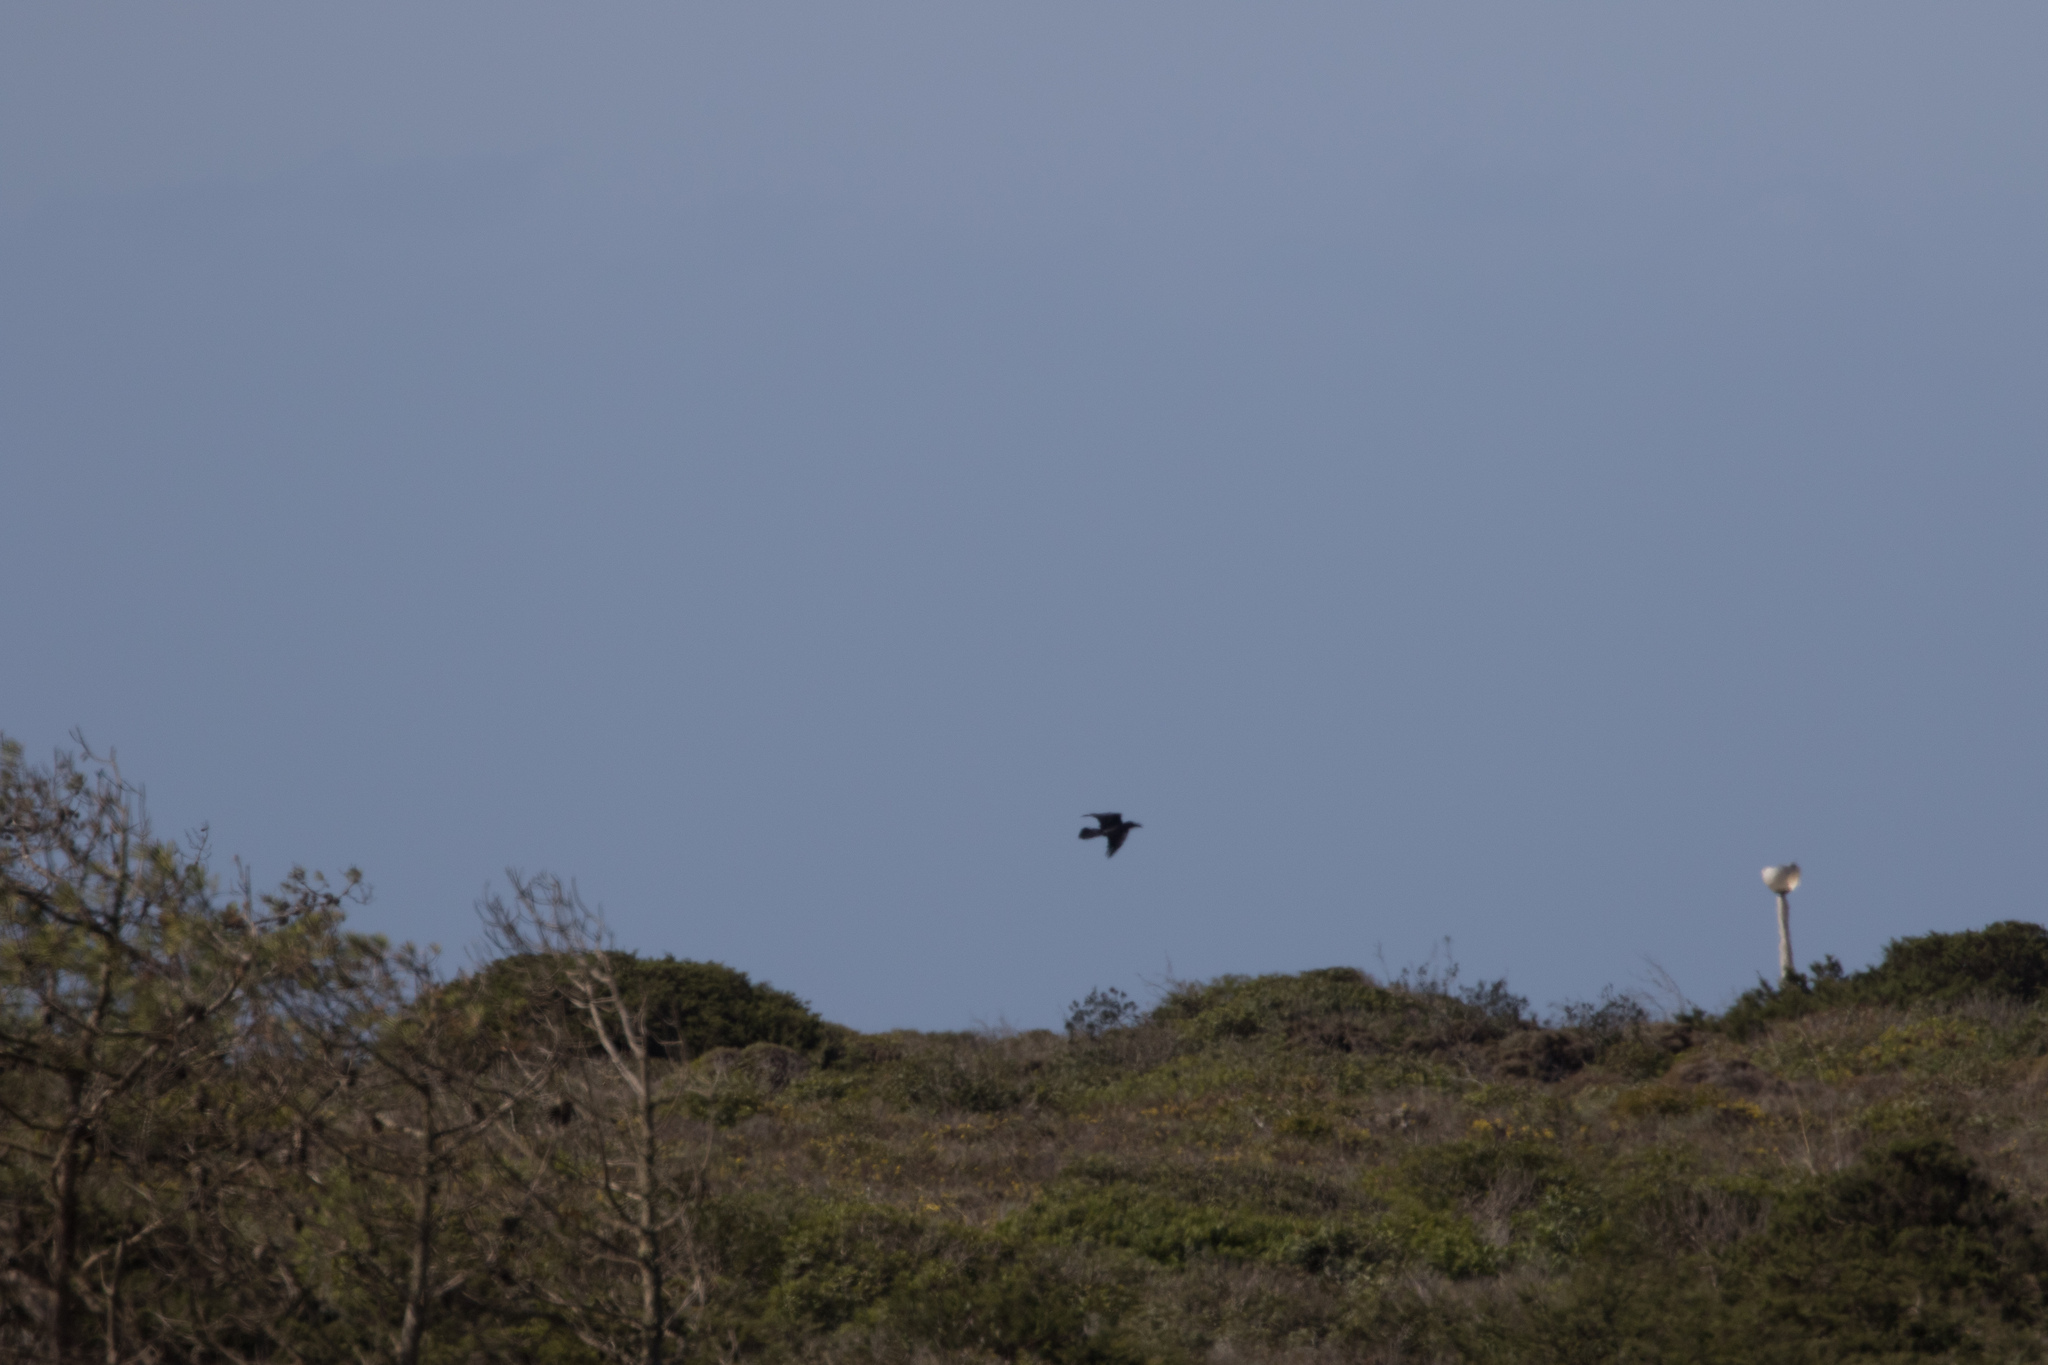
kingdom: Animalia
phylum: Chordata
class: Aves
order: Passeriformes
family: Corvidae
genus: Corvus
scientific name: Corvus corax
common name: Common raven
